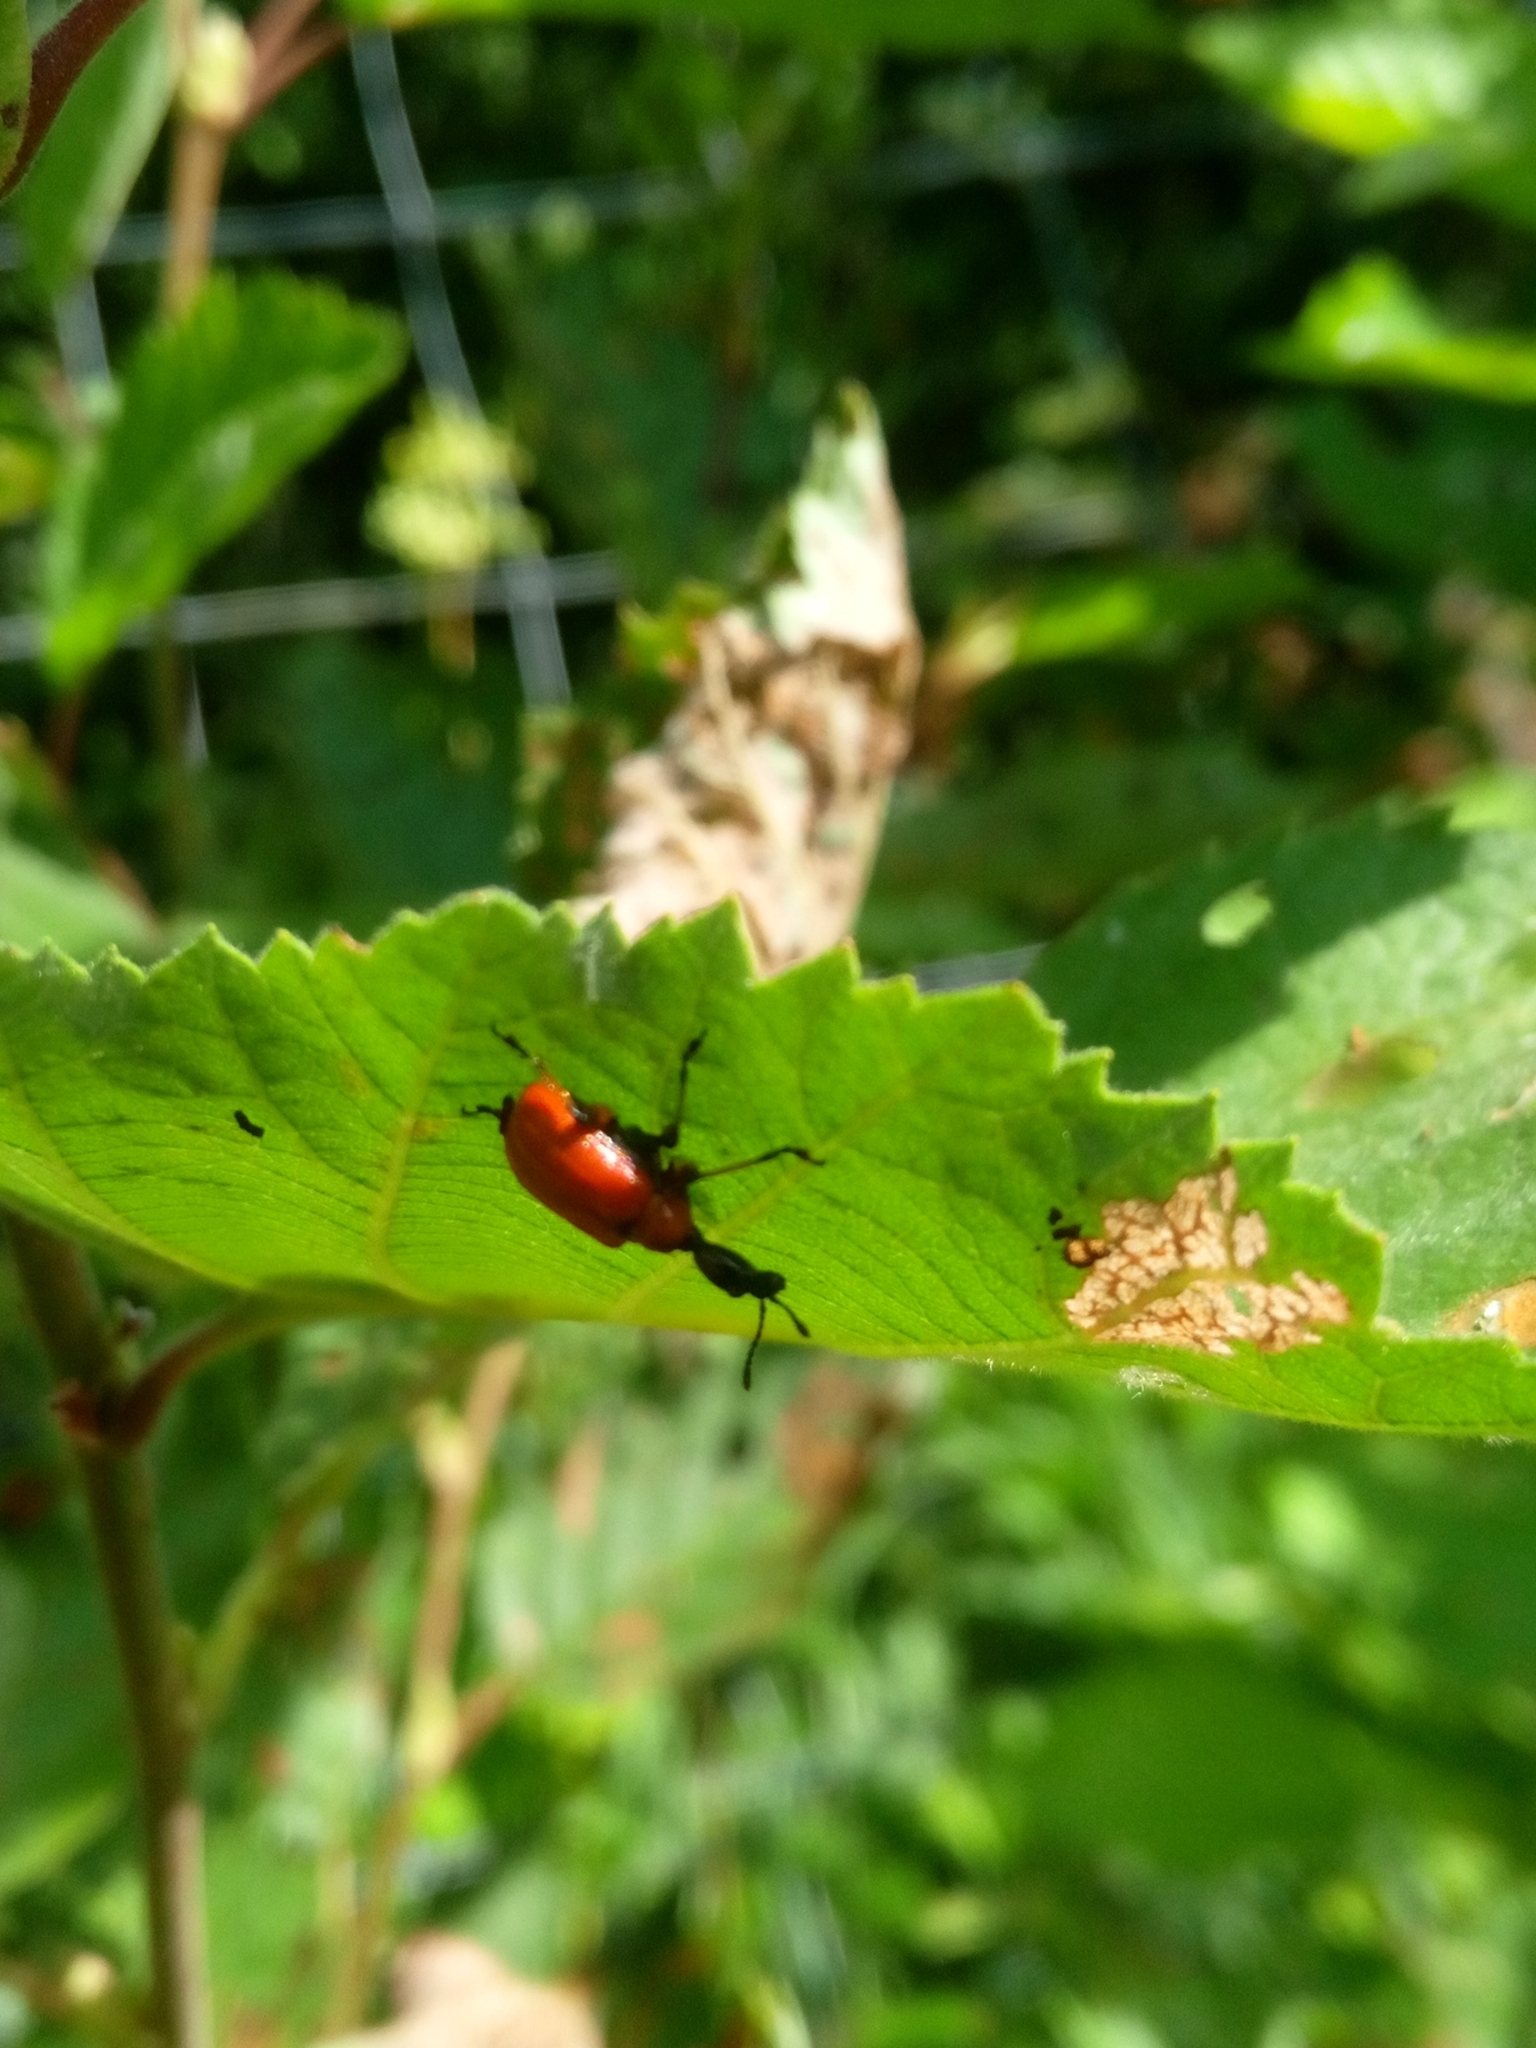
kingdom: Animalia
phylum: Arthropoda
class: Insecta
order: Coleoptera
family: Attelabidae
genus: Apoderus
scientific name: Apoderus coryli
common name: Hazel leaf roller
